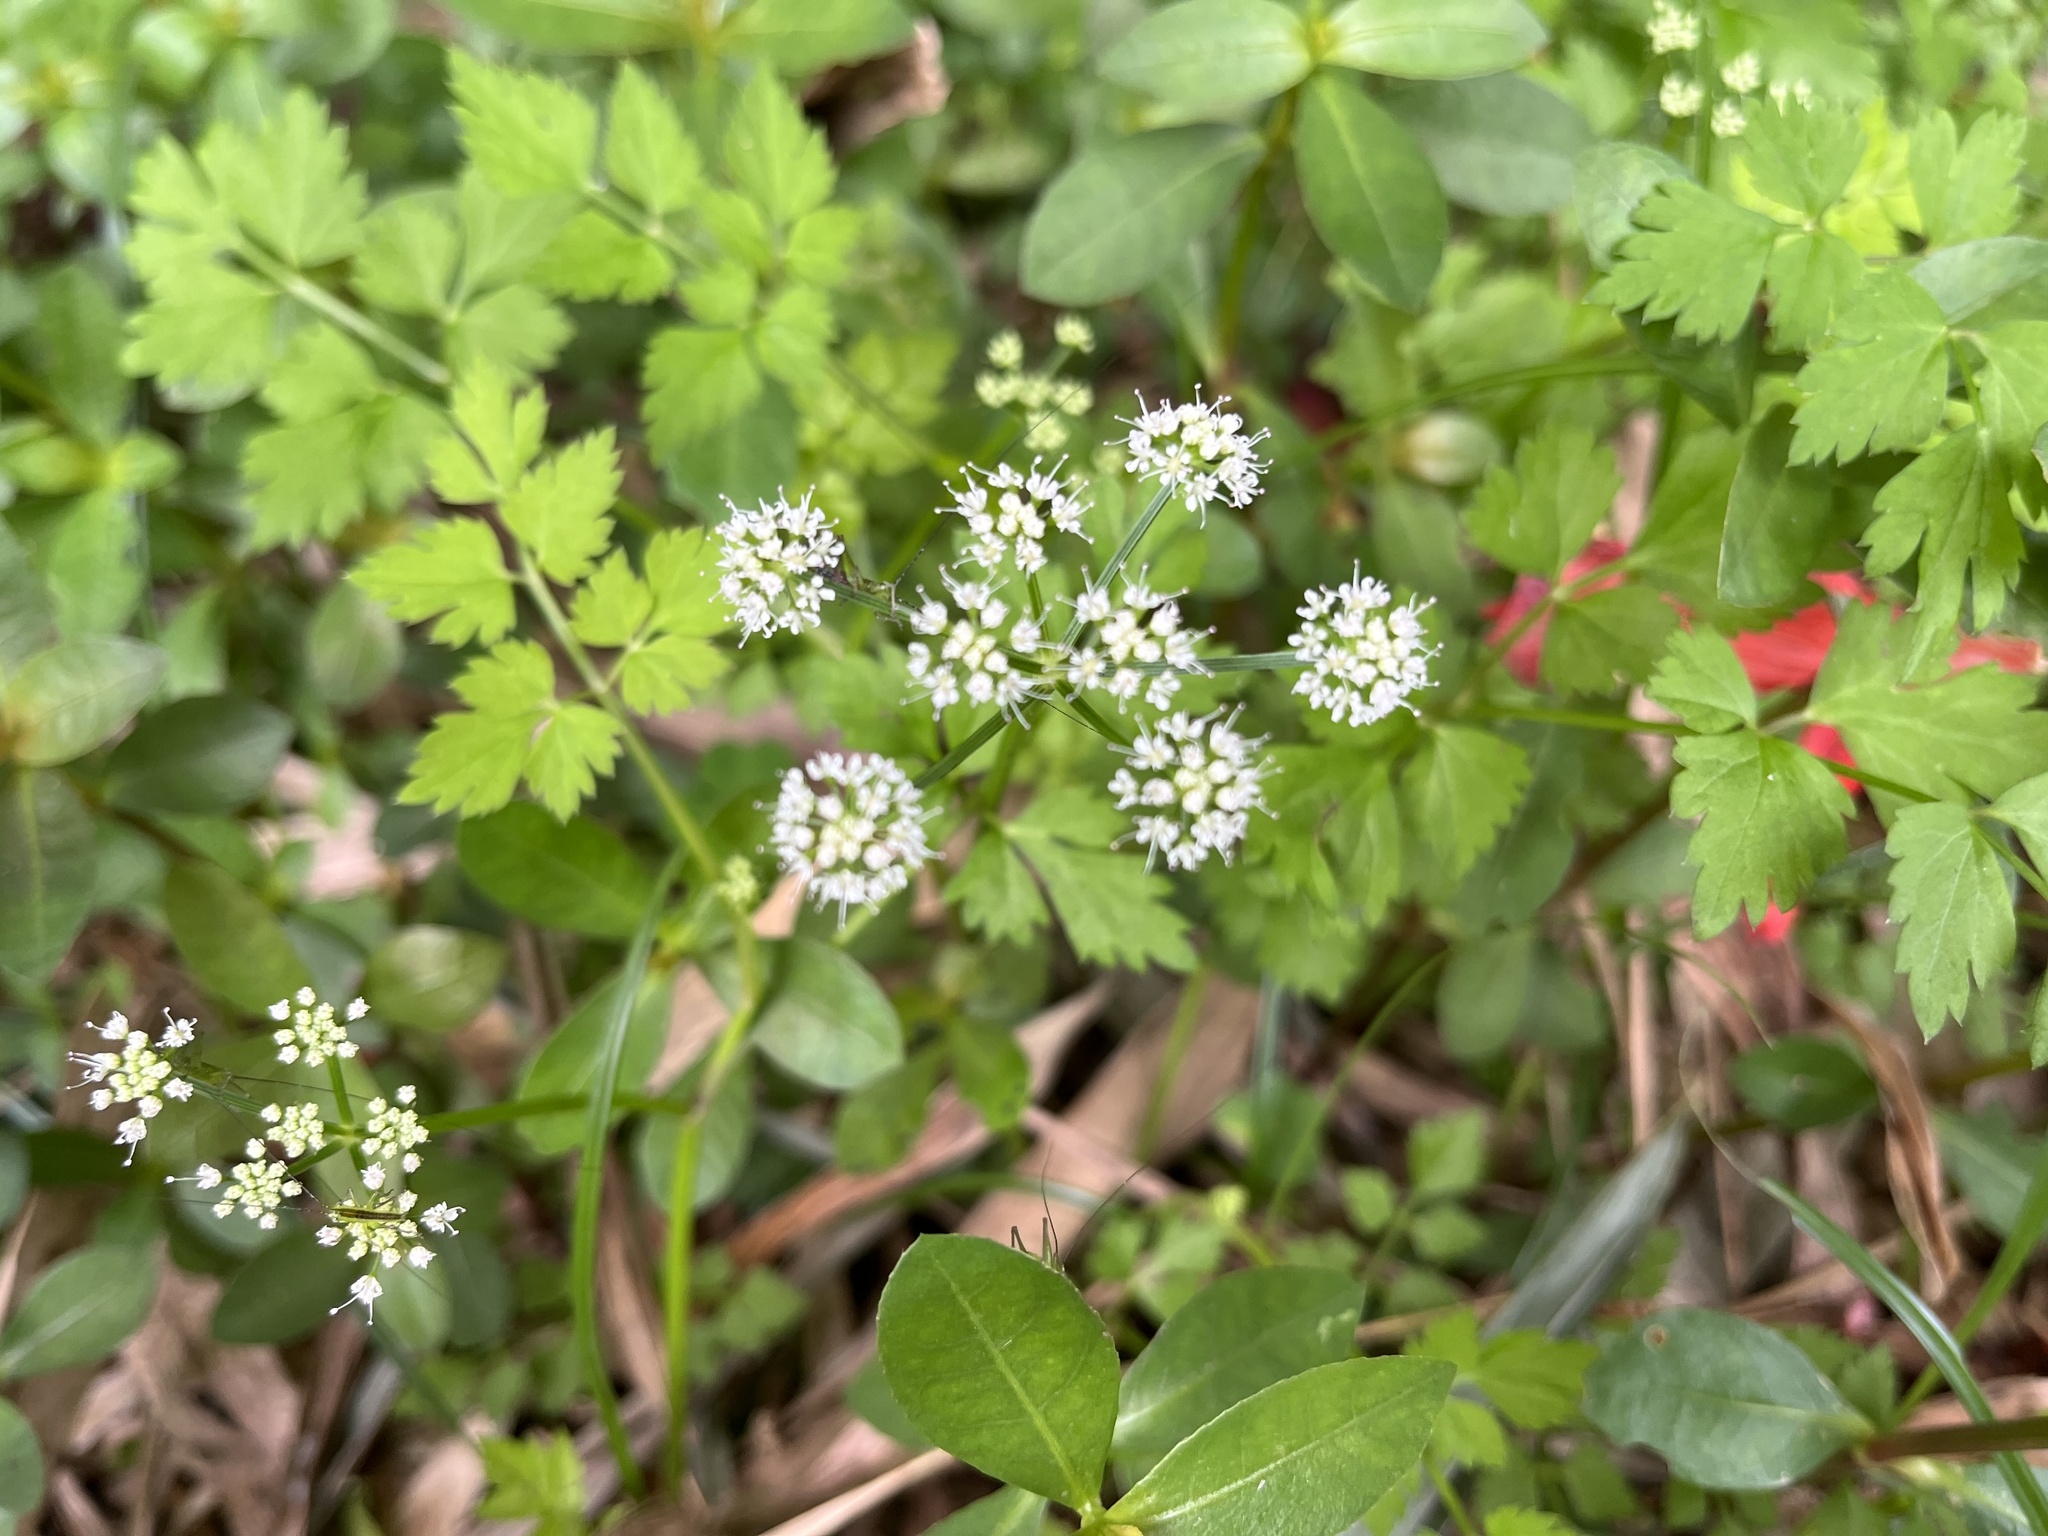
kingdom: Plantae
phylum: Tracheophyta
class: Magnoliopsida
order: Apiales
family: Apiaceae
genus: Oenanthe
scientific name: Oenanthe javanica
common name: Java water-dropwort
